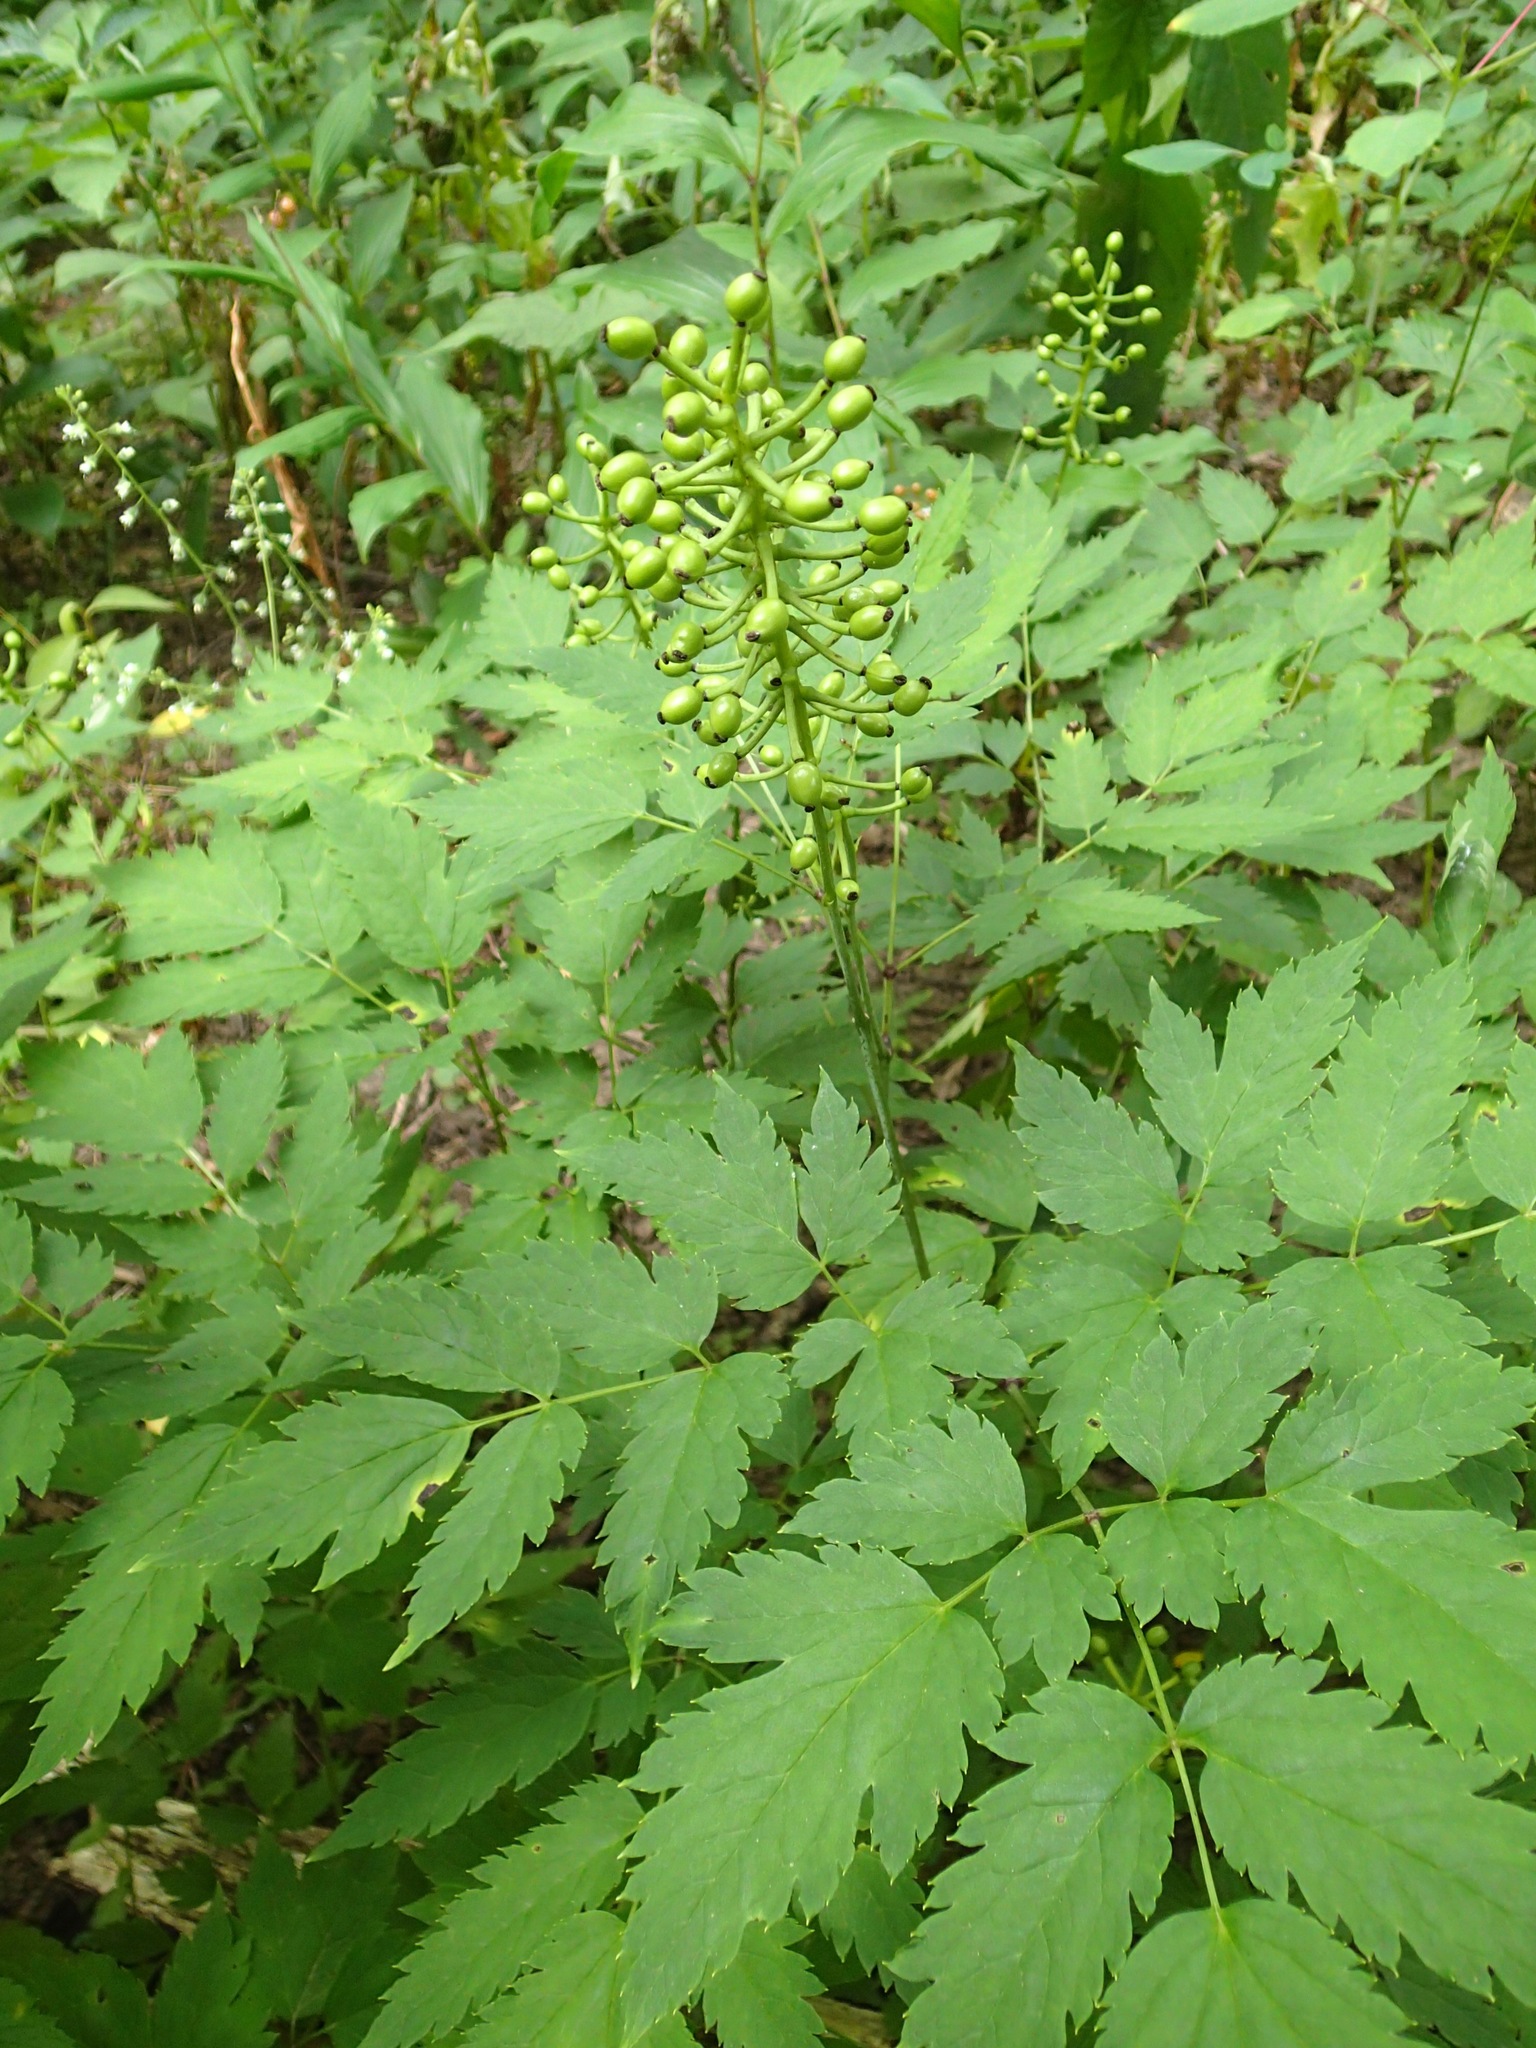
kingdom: Plantae
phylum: Tracheophyta
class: Magnoliopsida
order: Ranunculales
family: Ranunculaceae
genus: Actaea
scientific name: Actaea pachypoda
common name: Doll's-eyes
